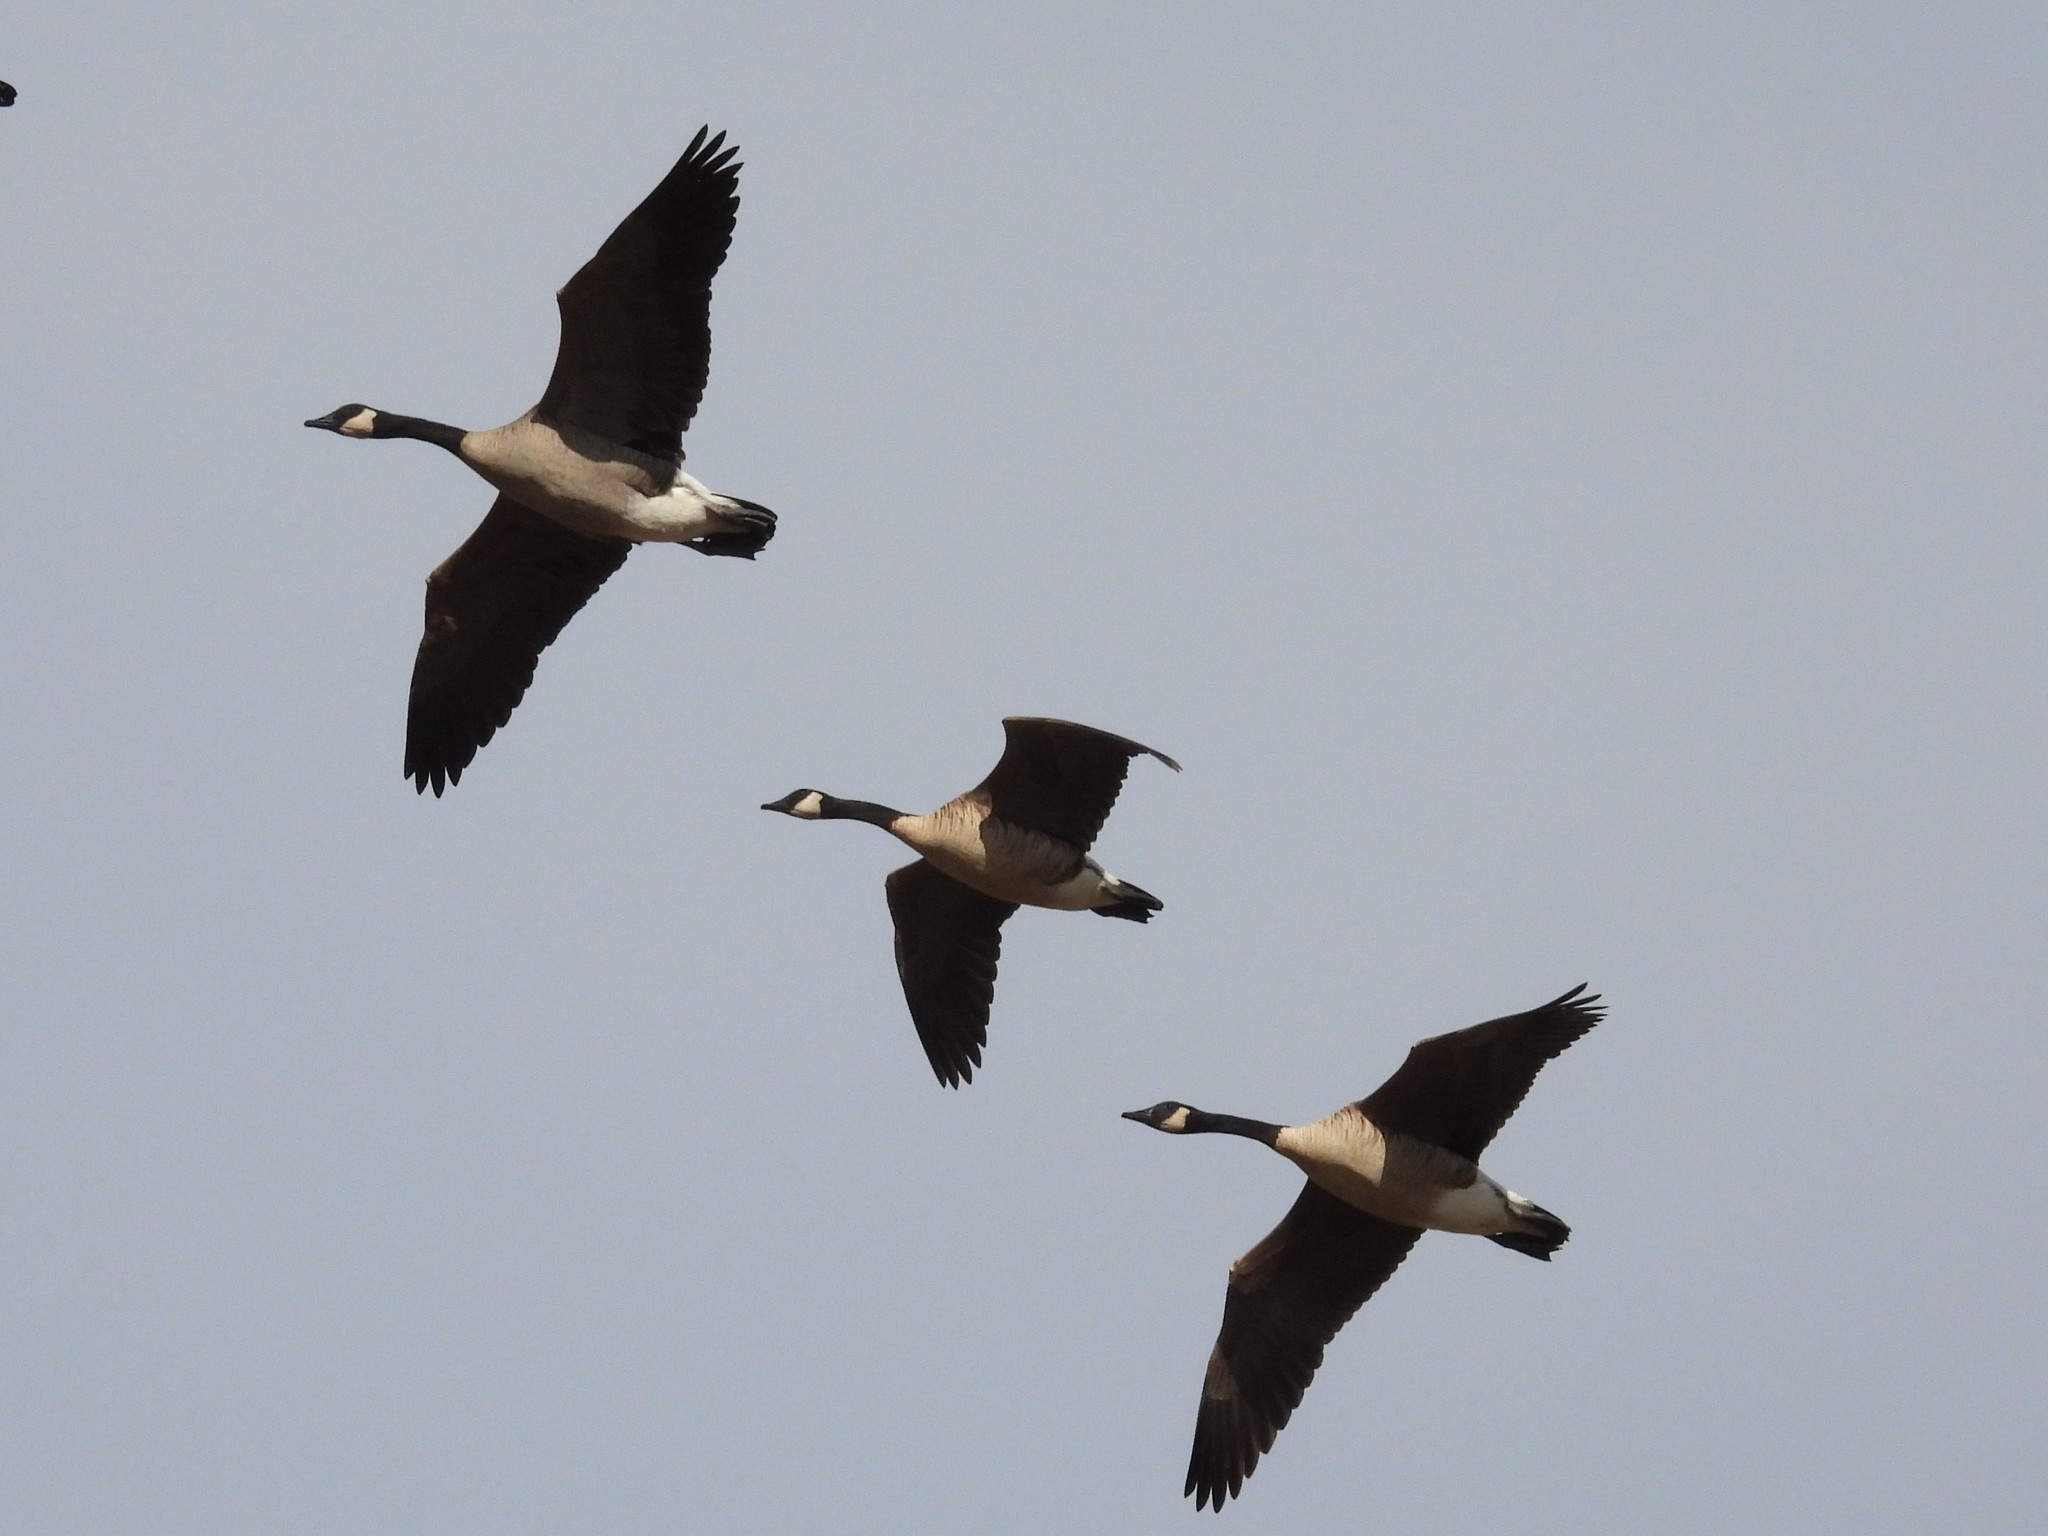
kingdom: Animalia
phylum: Chordata
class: Aves
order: Anseriformes
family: Anatidae
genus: Branta
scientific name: Branta canadensis
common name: Canada goose
